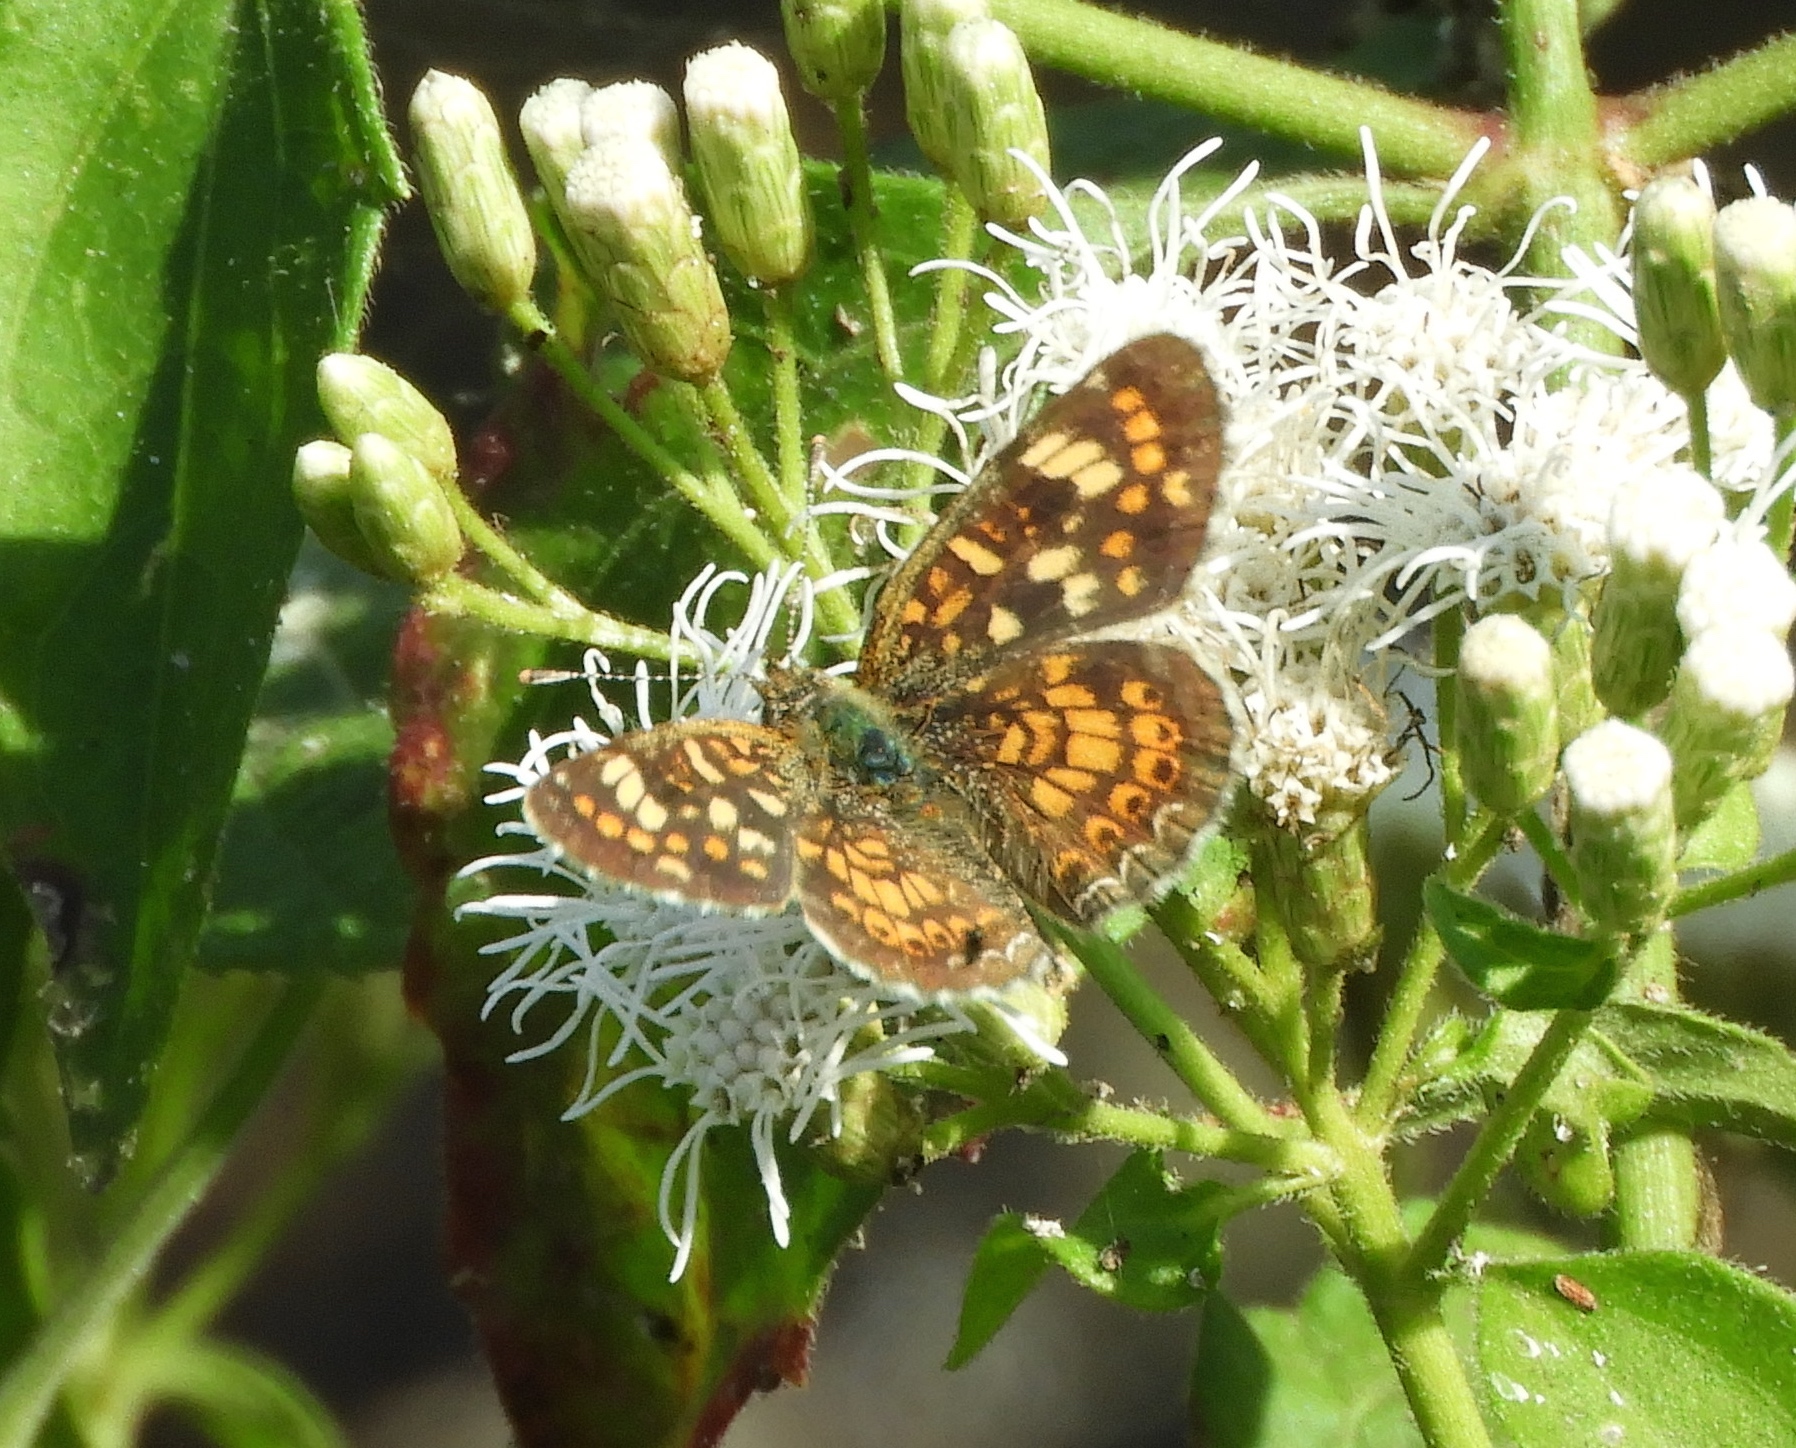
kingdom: Animalia
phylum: Arthropoda
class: Insecta
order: Lepidoptera
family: Nymphalidae
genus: Phyciodes
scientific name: Phyciodes picta
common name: Painted crescent
